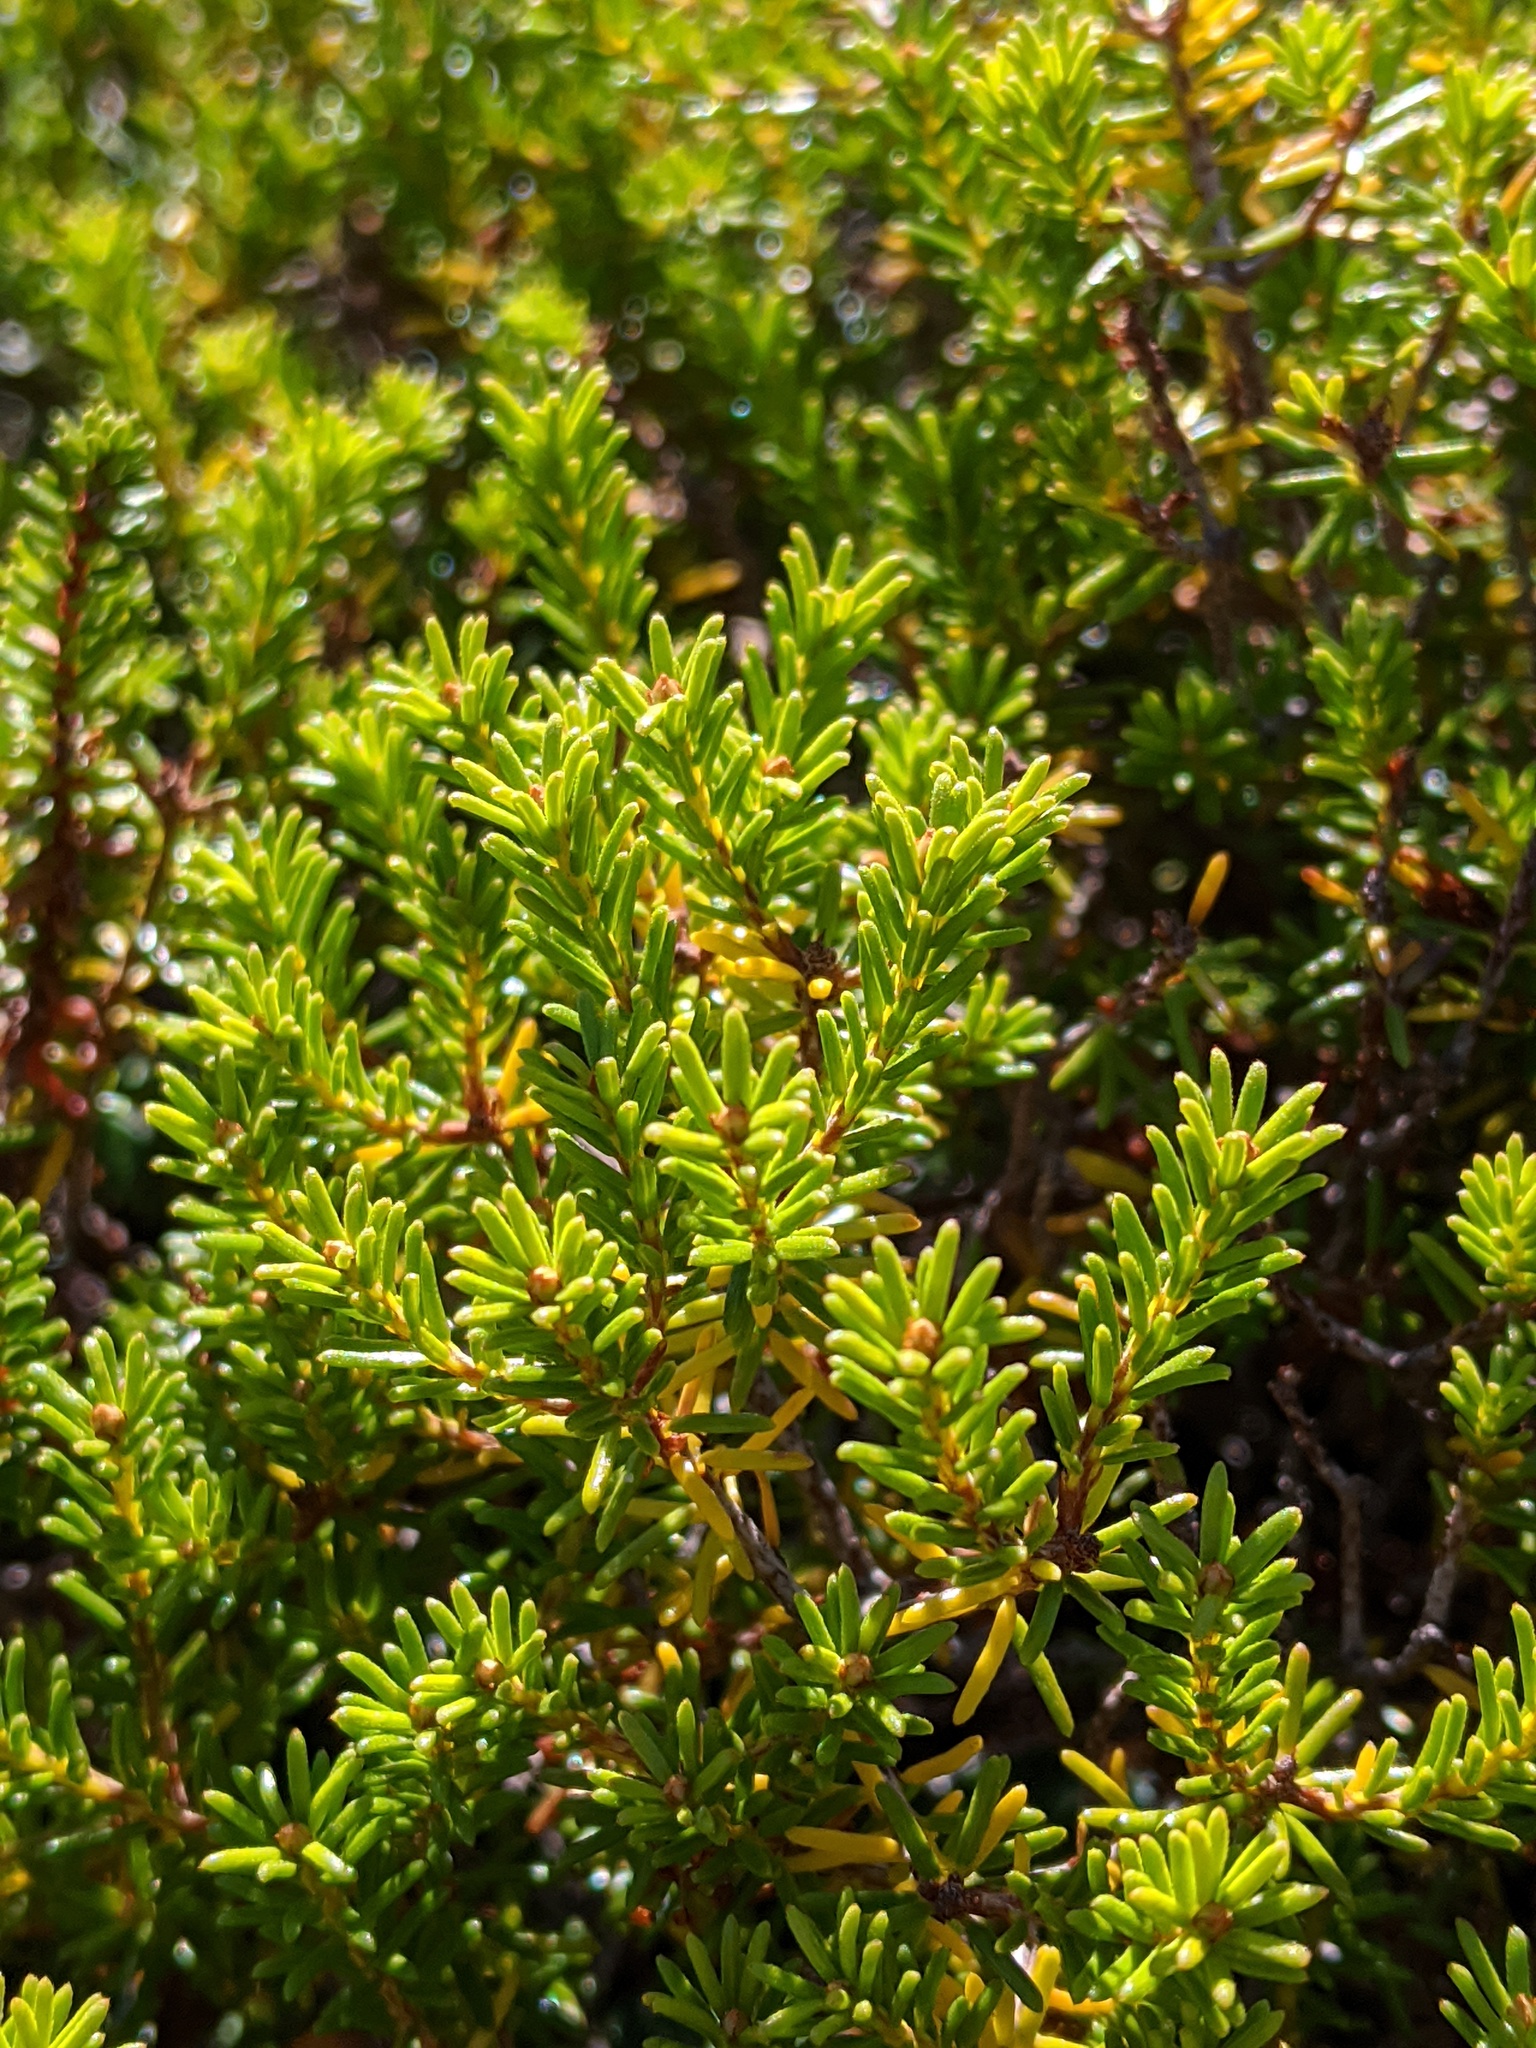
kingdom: Plantae
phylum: Tracheophyta
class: Magnoliopsida
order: Ericales
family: Ericaceae
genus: Empetrum
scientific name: Empetrum nigrum
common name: Black crowberry
